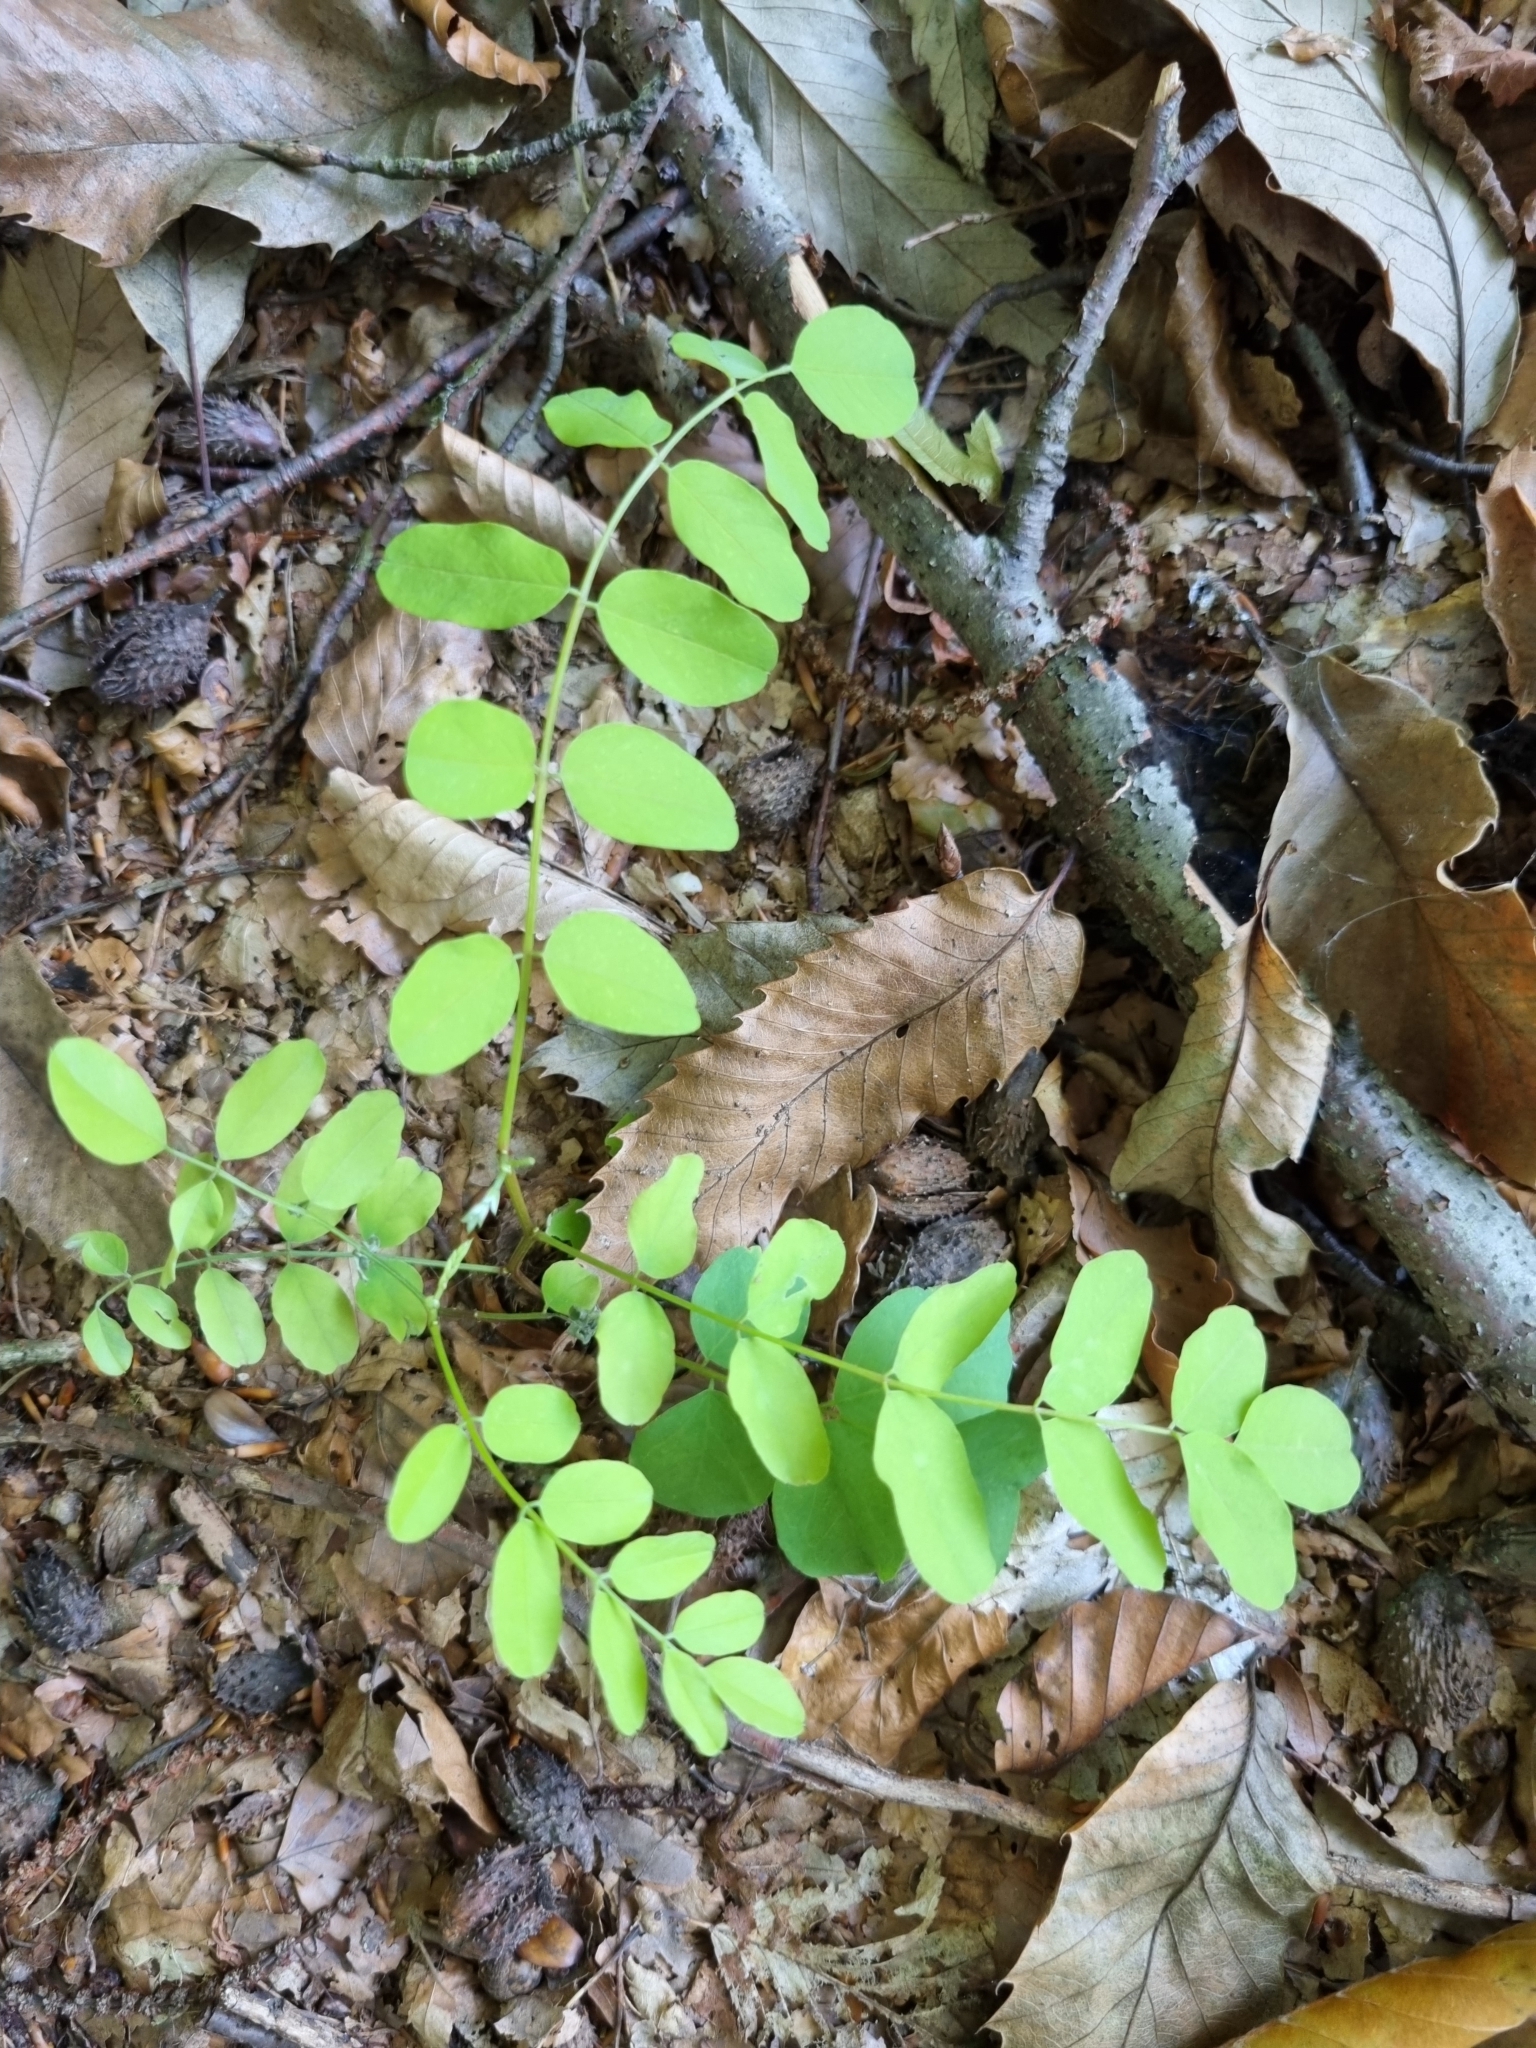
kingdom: Plantae
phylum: Tracheophyta
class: Magnoliopsida
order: Fabales
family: Fabaceae
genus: Robinia
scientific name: Robinia pseudoacacia
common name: Black locust
